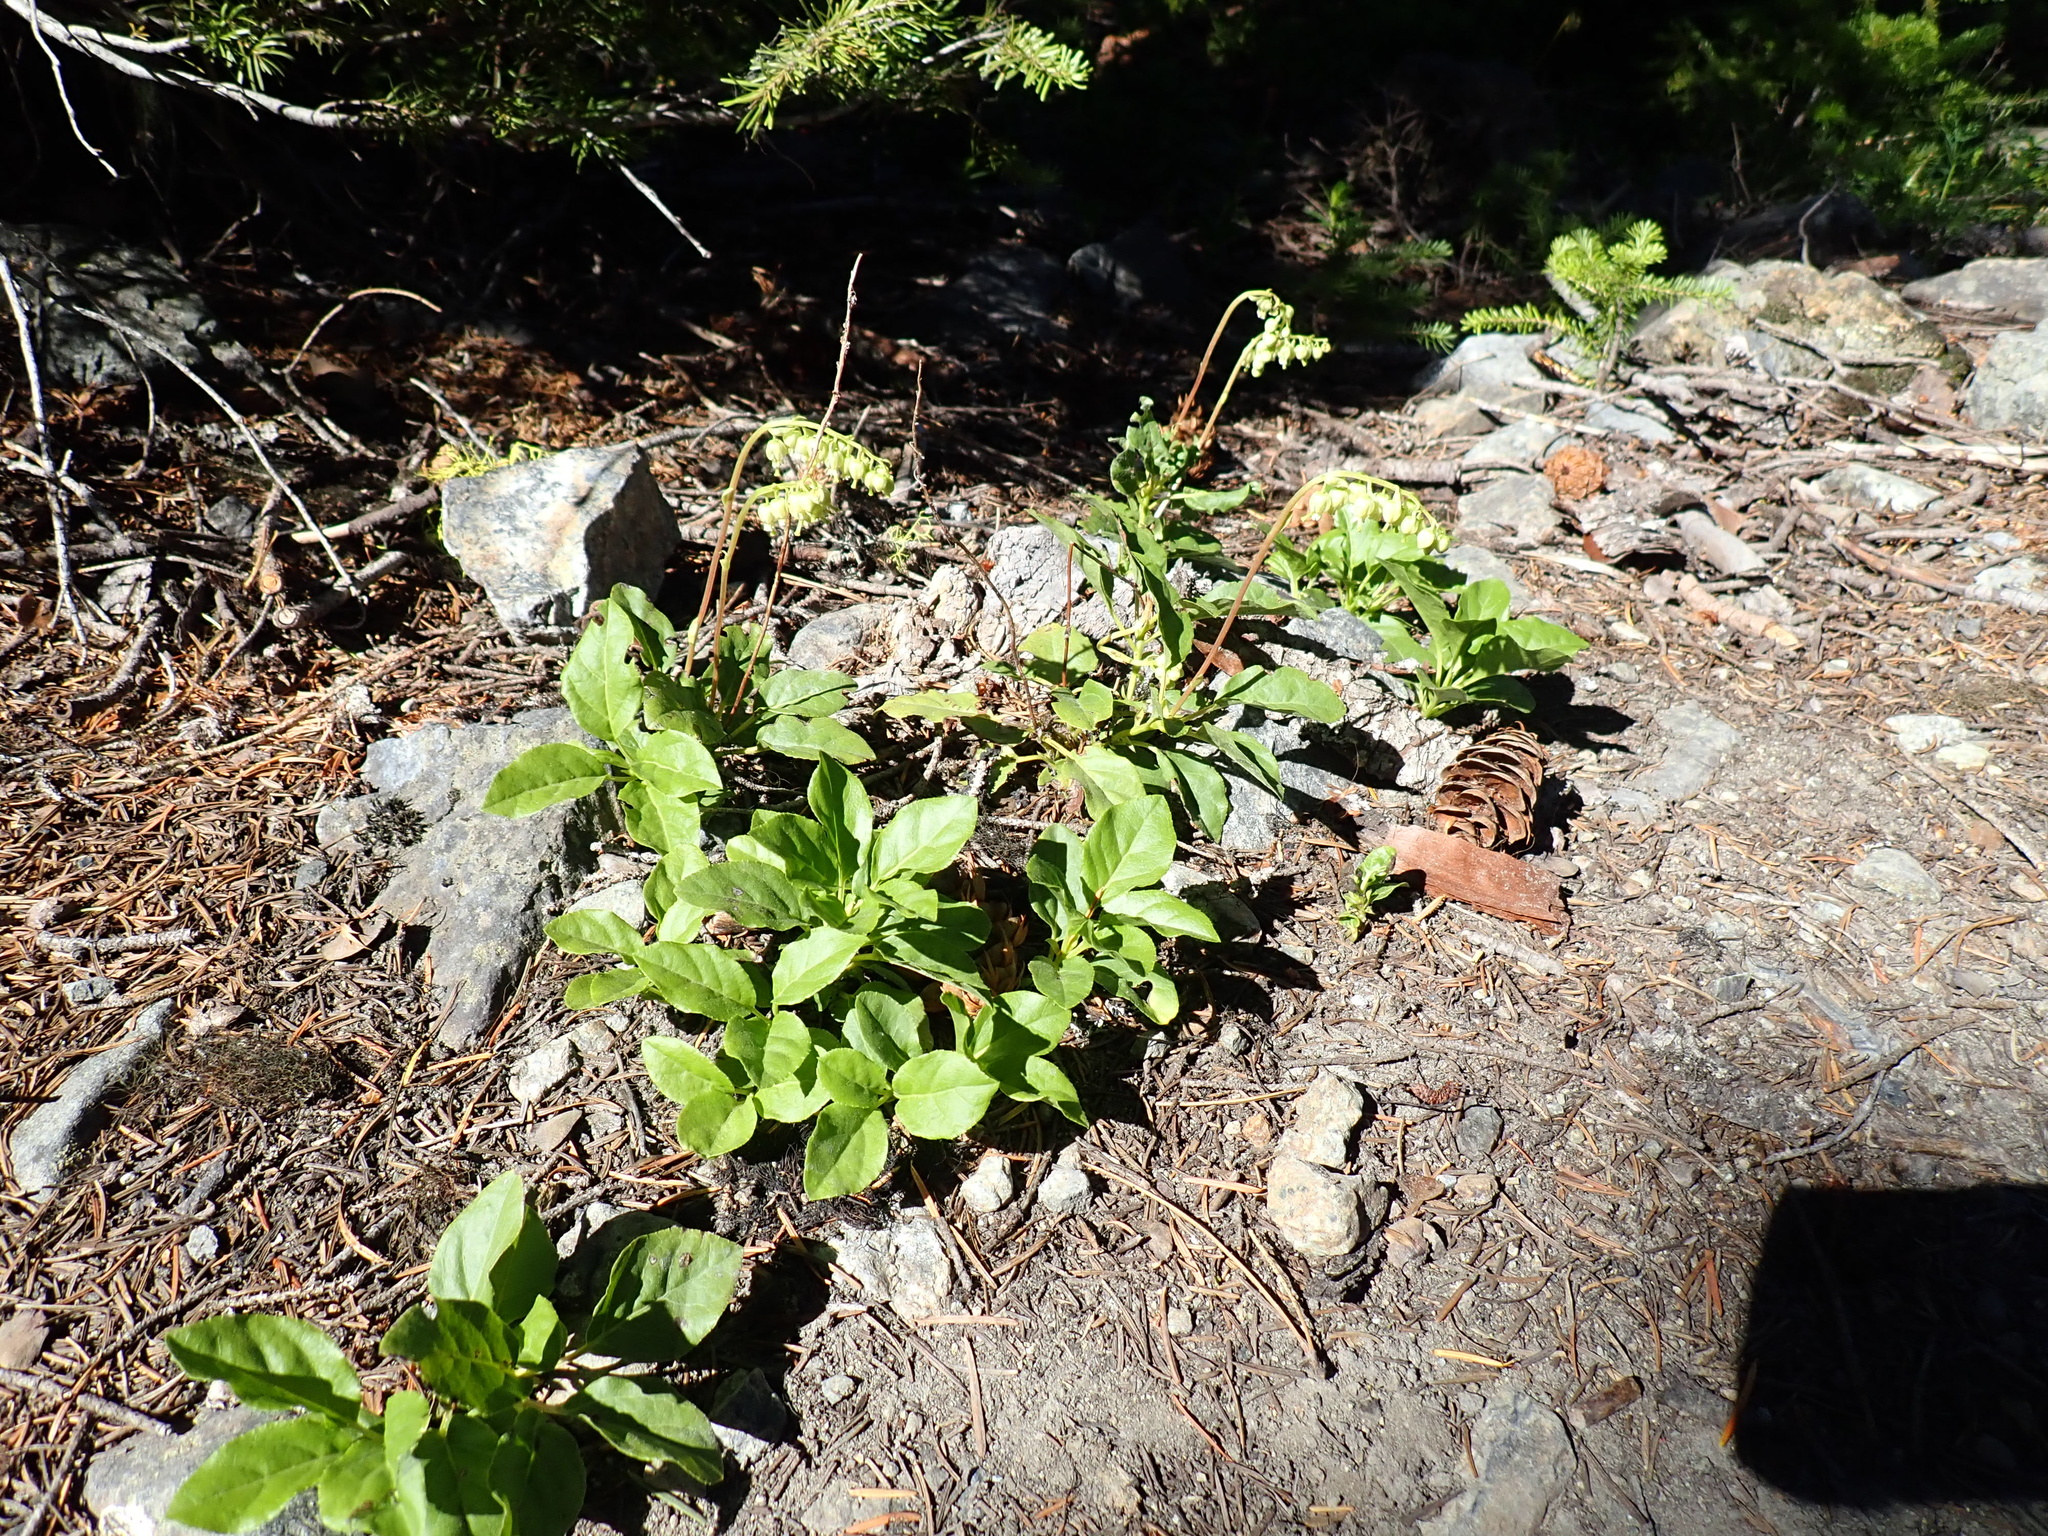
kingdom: Plantae
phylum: Tracheophyta
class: Magnoliopsida
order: Ericales
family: Ericaceae
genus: Orthilia
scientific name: Orthilia secunda
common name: One-sided orthilia
